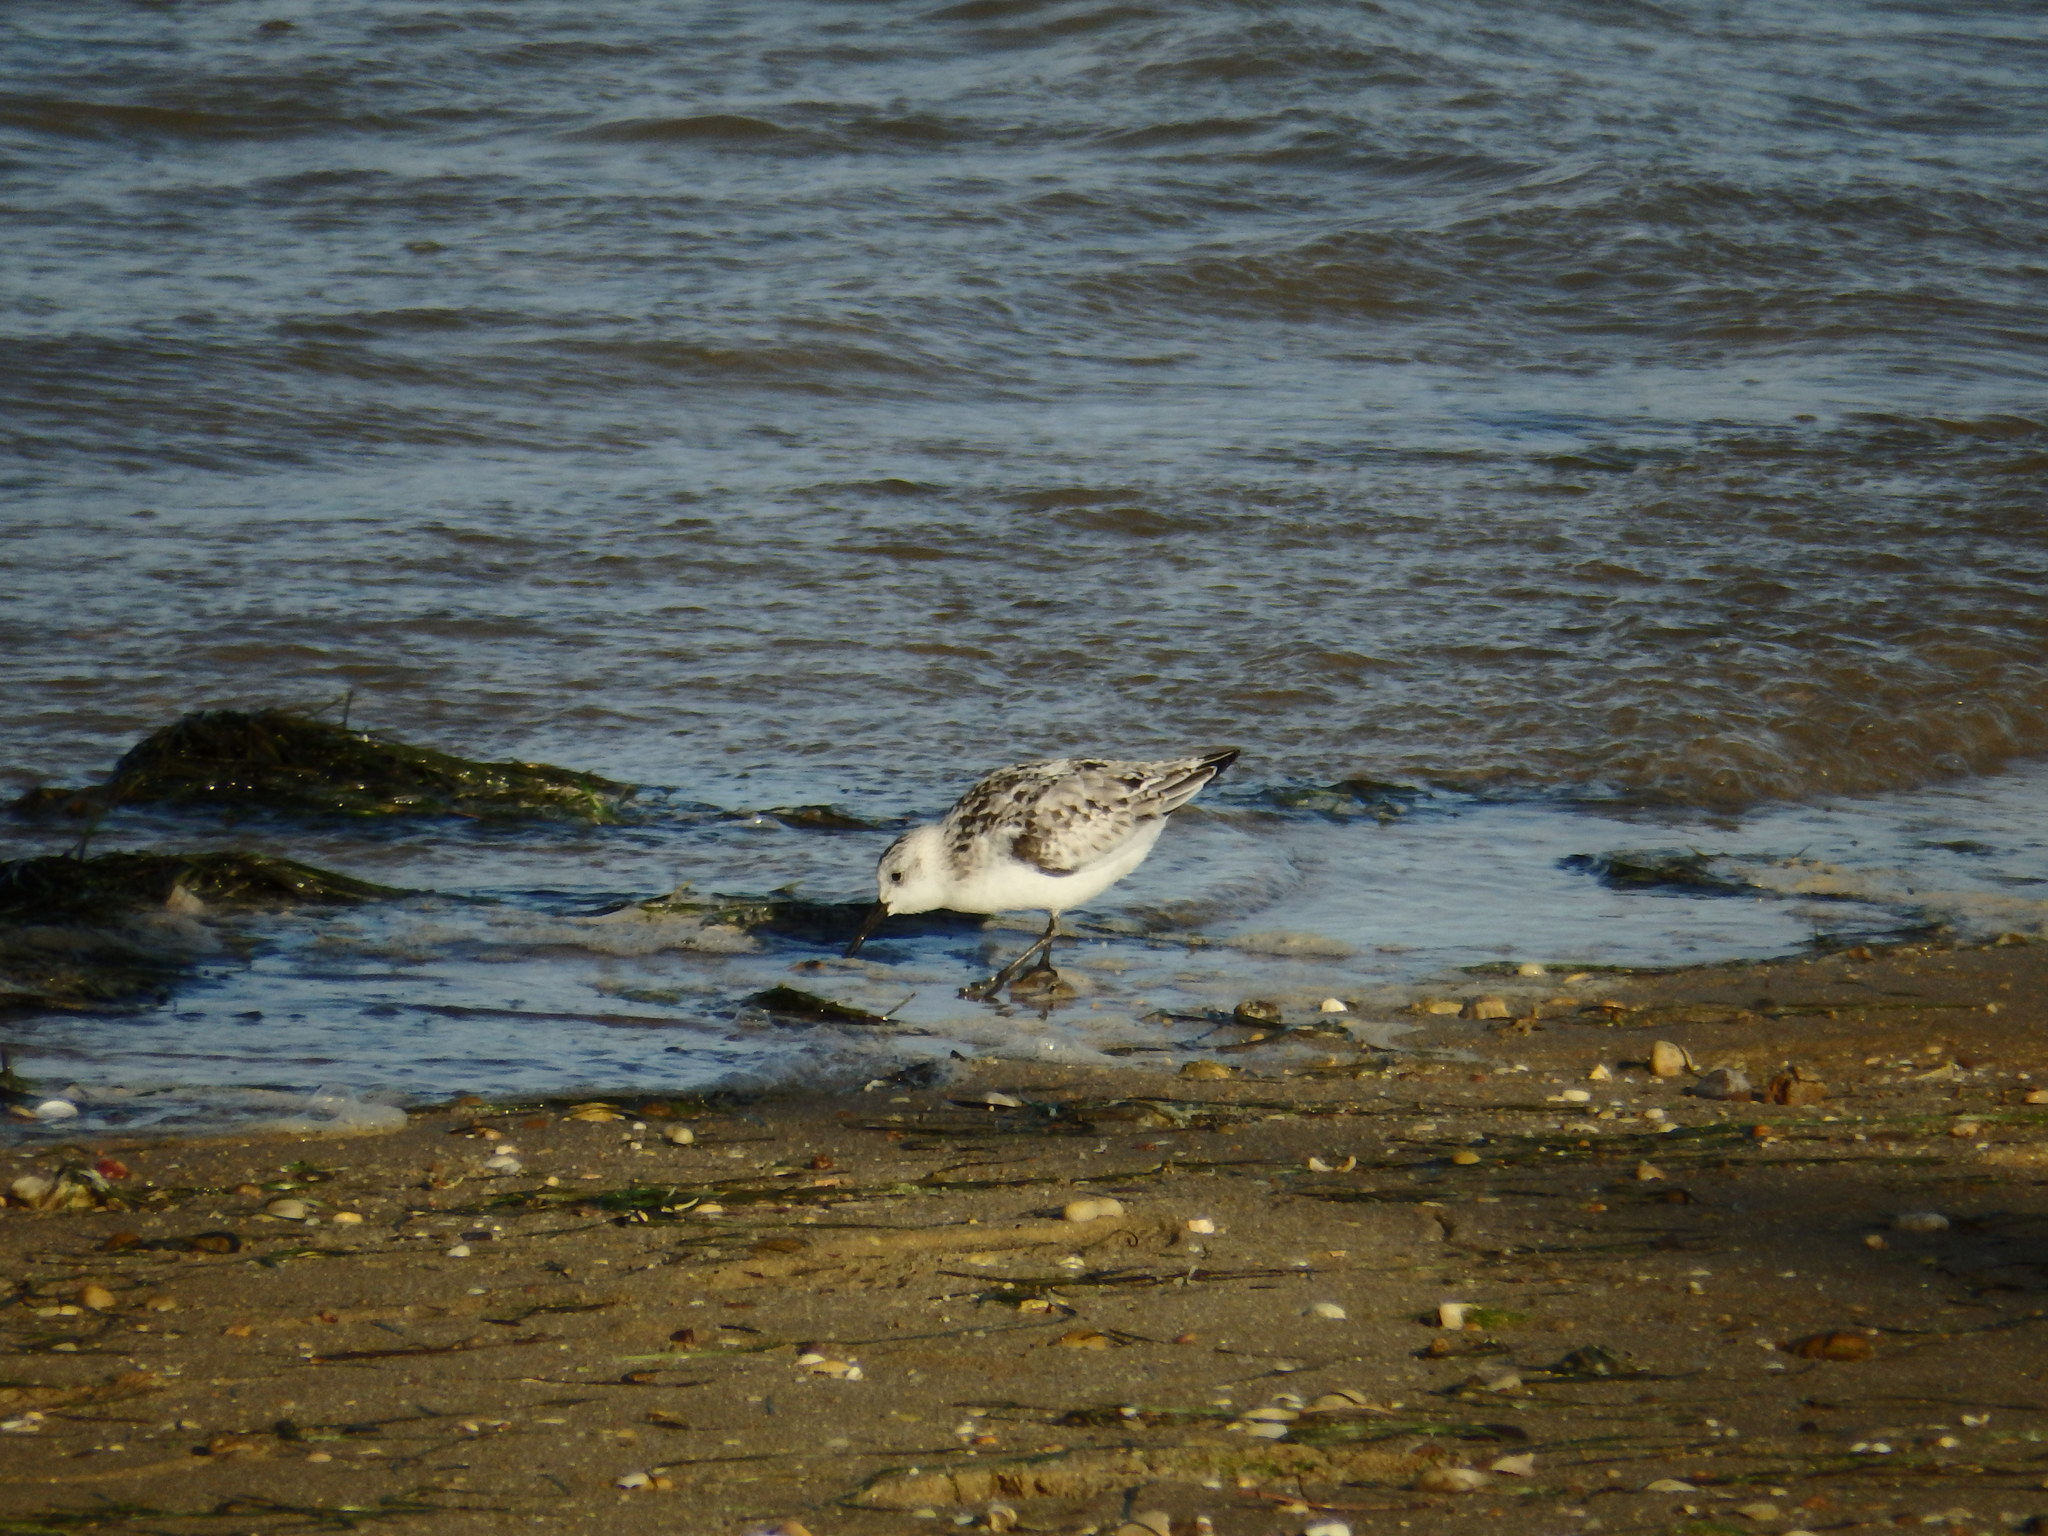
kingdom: Animalia
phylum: Chordata
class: Aves
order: Charadriiformes
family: Scolopacidae
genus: Calidris
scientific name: Calidris alba
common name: Sanderling
